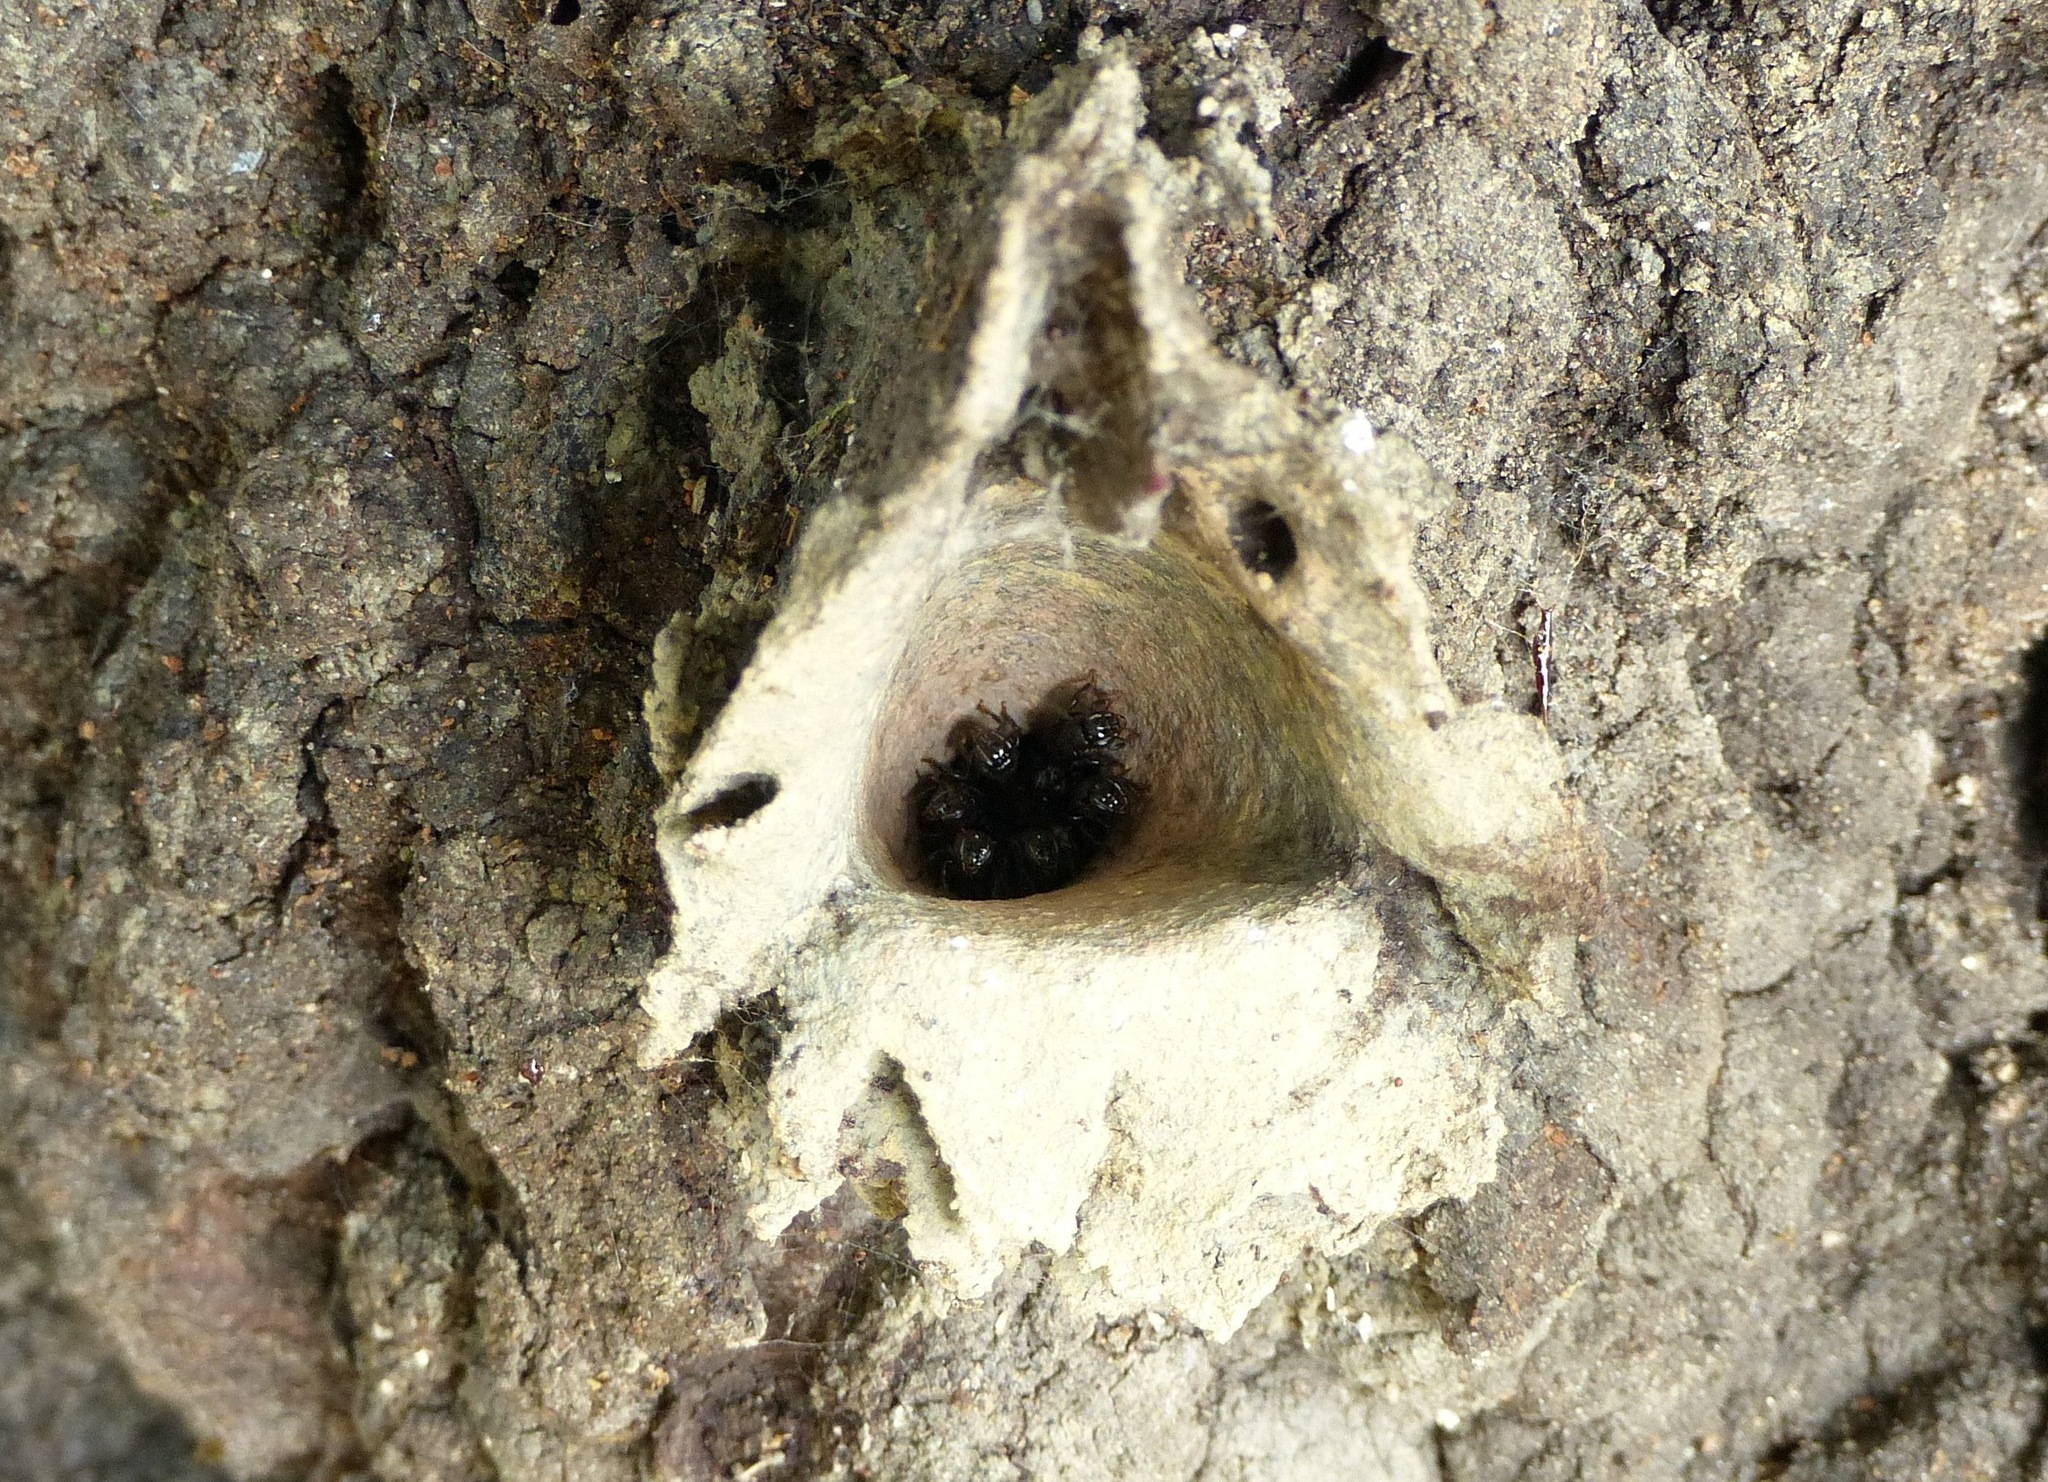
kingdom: Animalia
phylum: Arthropoda
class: Insecta
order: Hymenoptera
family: Apidae
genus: Partamona
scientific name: Partamona helleri
